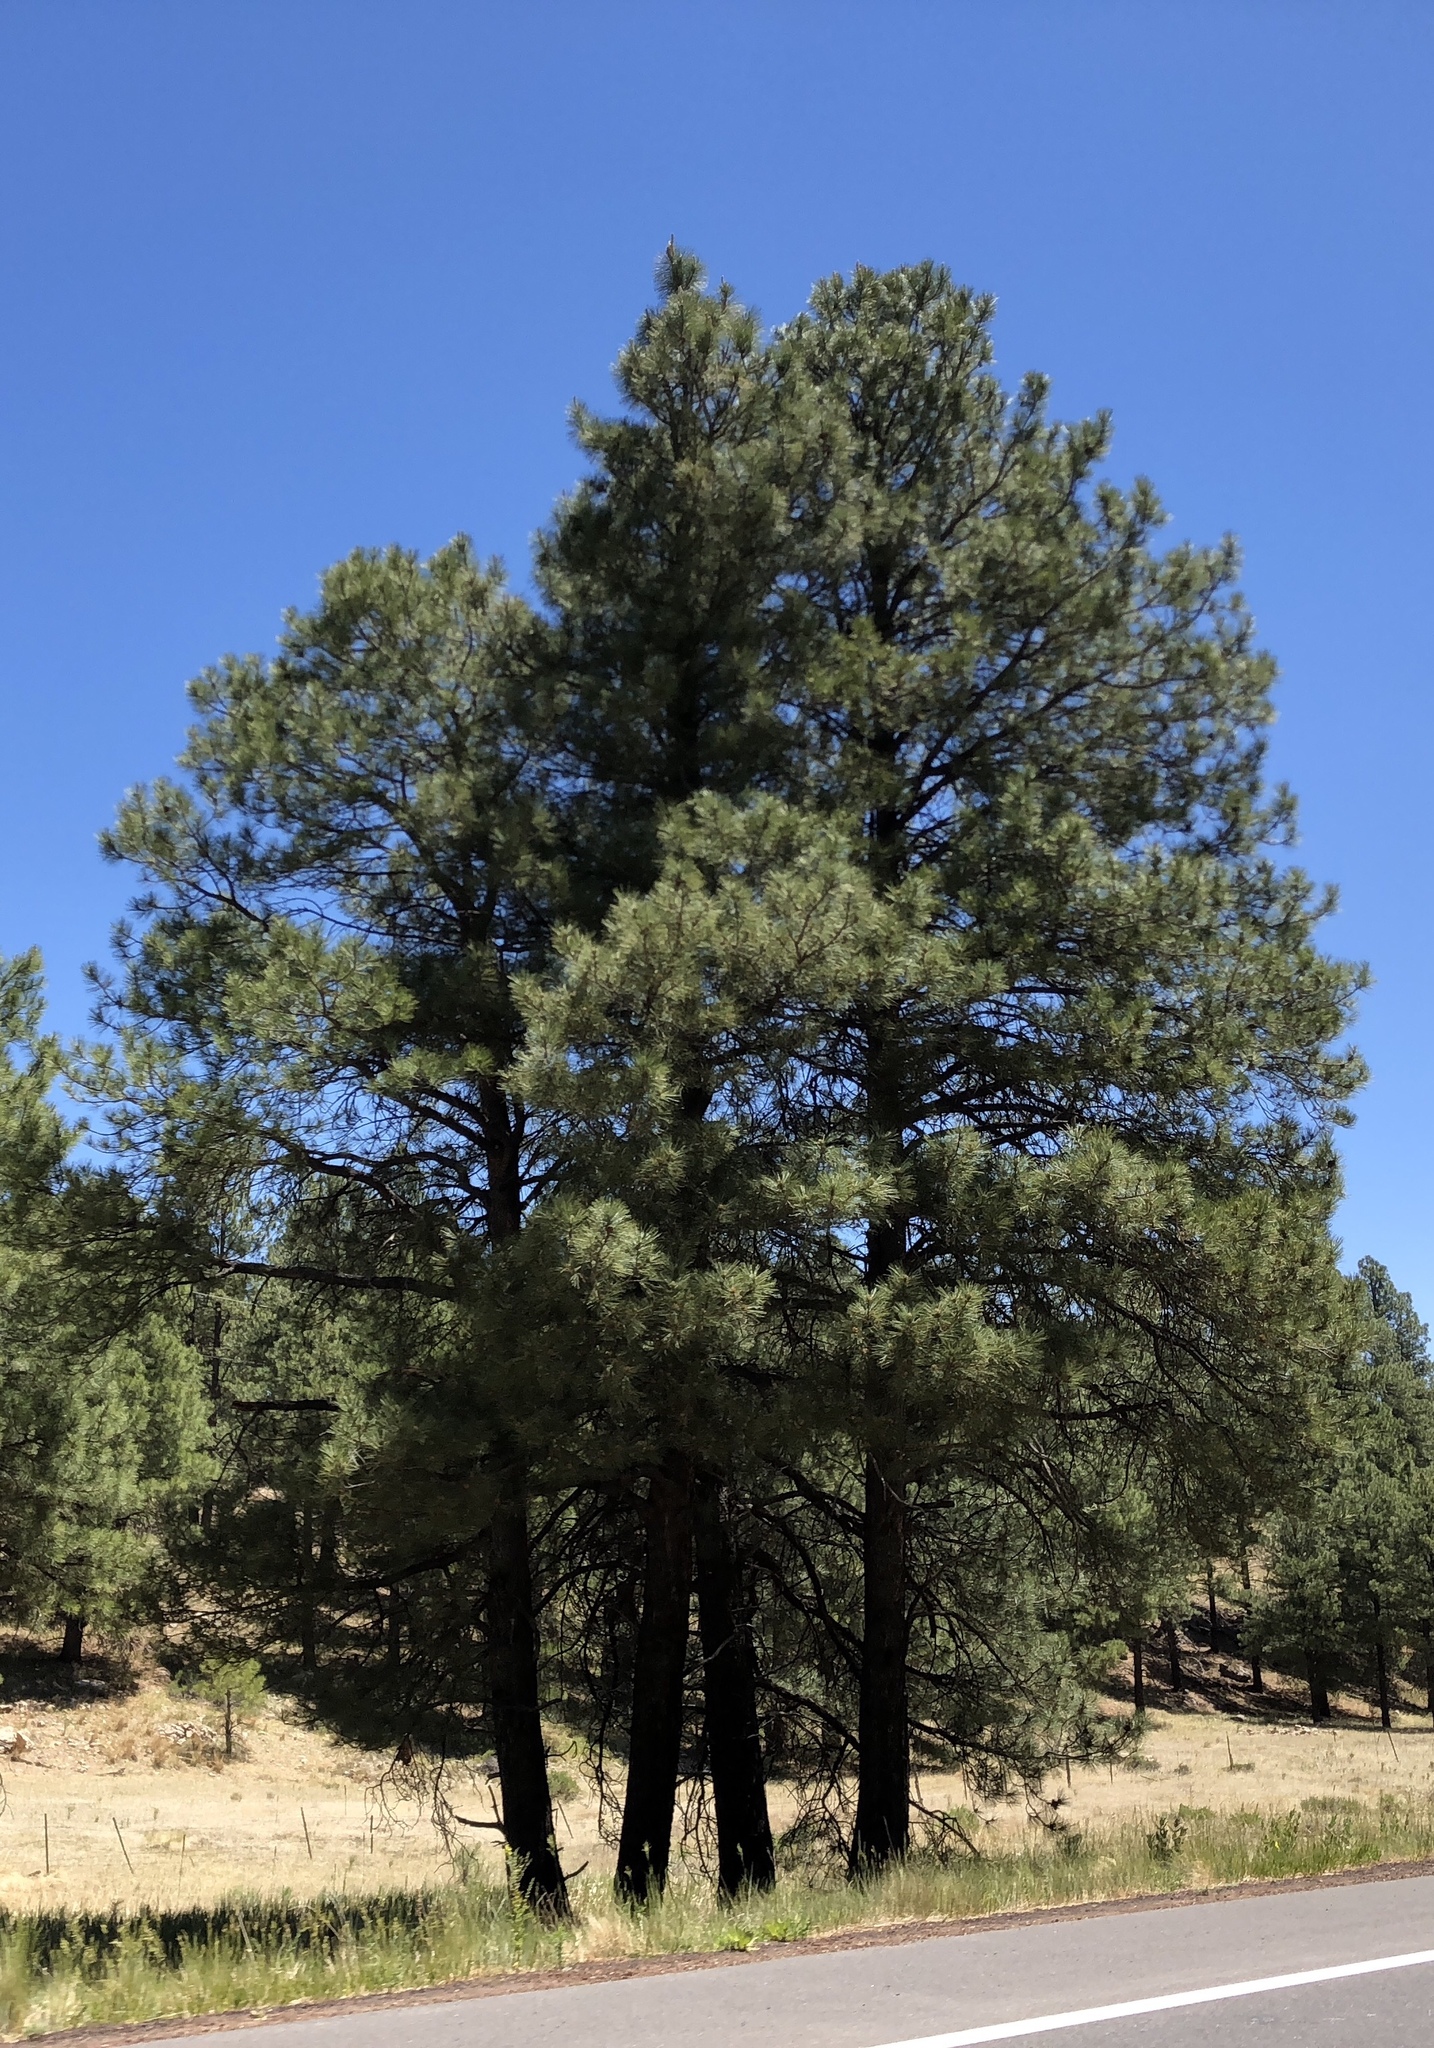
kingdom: Plantae
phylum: Tracheophyta
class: Pinopsida
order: Pinales
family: Pinaceae
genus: Pinus
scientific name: Pinus ponderosa
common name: Western yellow-pine
